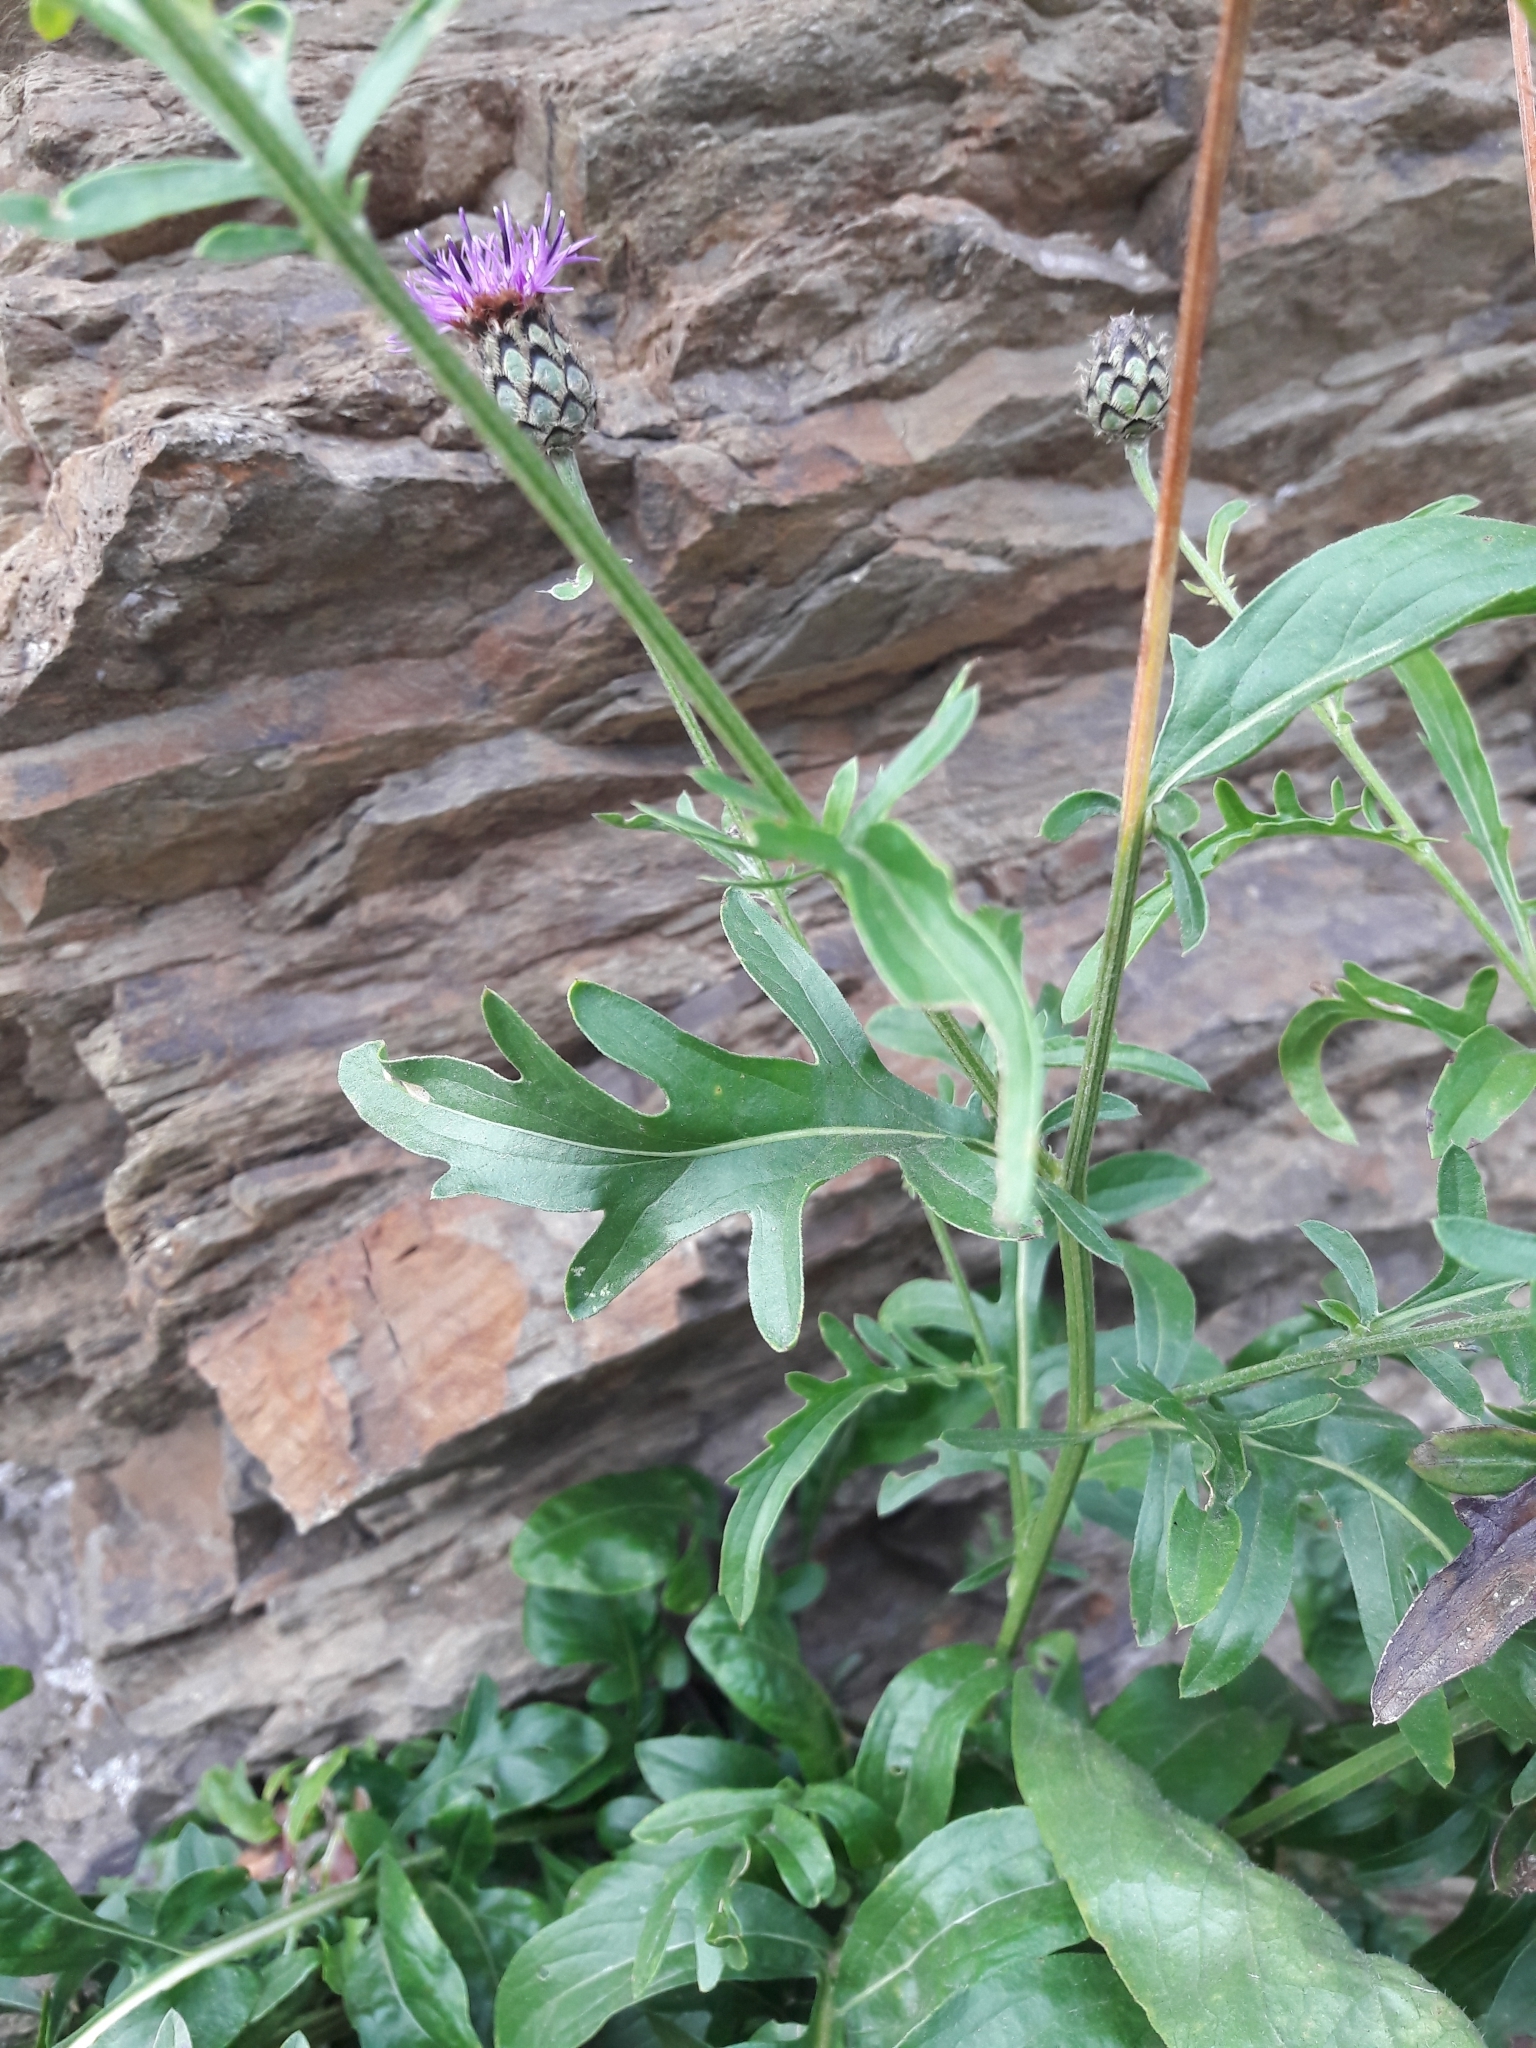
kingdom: Plantae
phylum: Tracheophyta
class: Magnoliopsida
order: Asterales
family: Asteraceae
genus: Centaurea
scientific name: Centaurea scabiosa
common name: Greater knapweed
